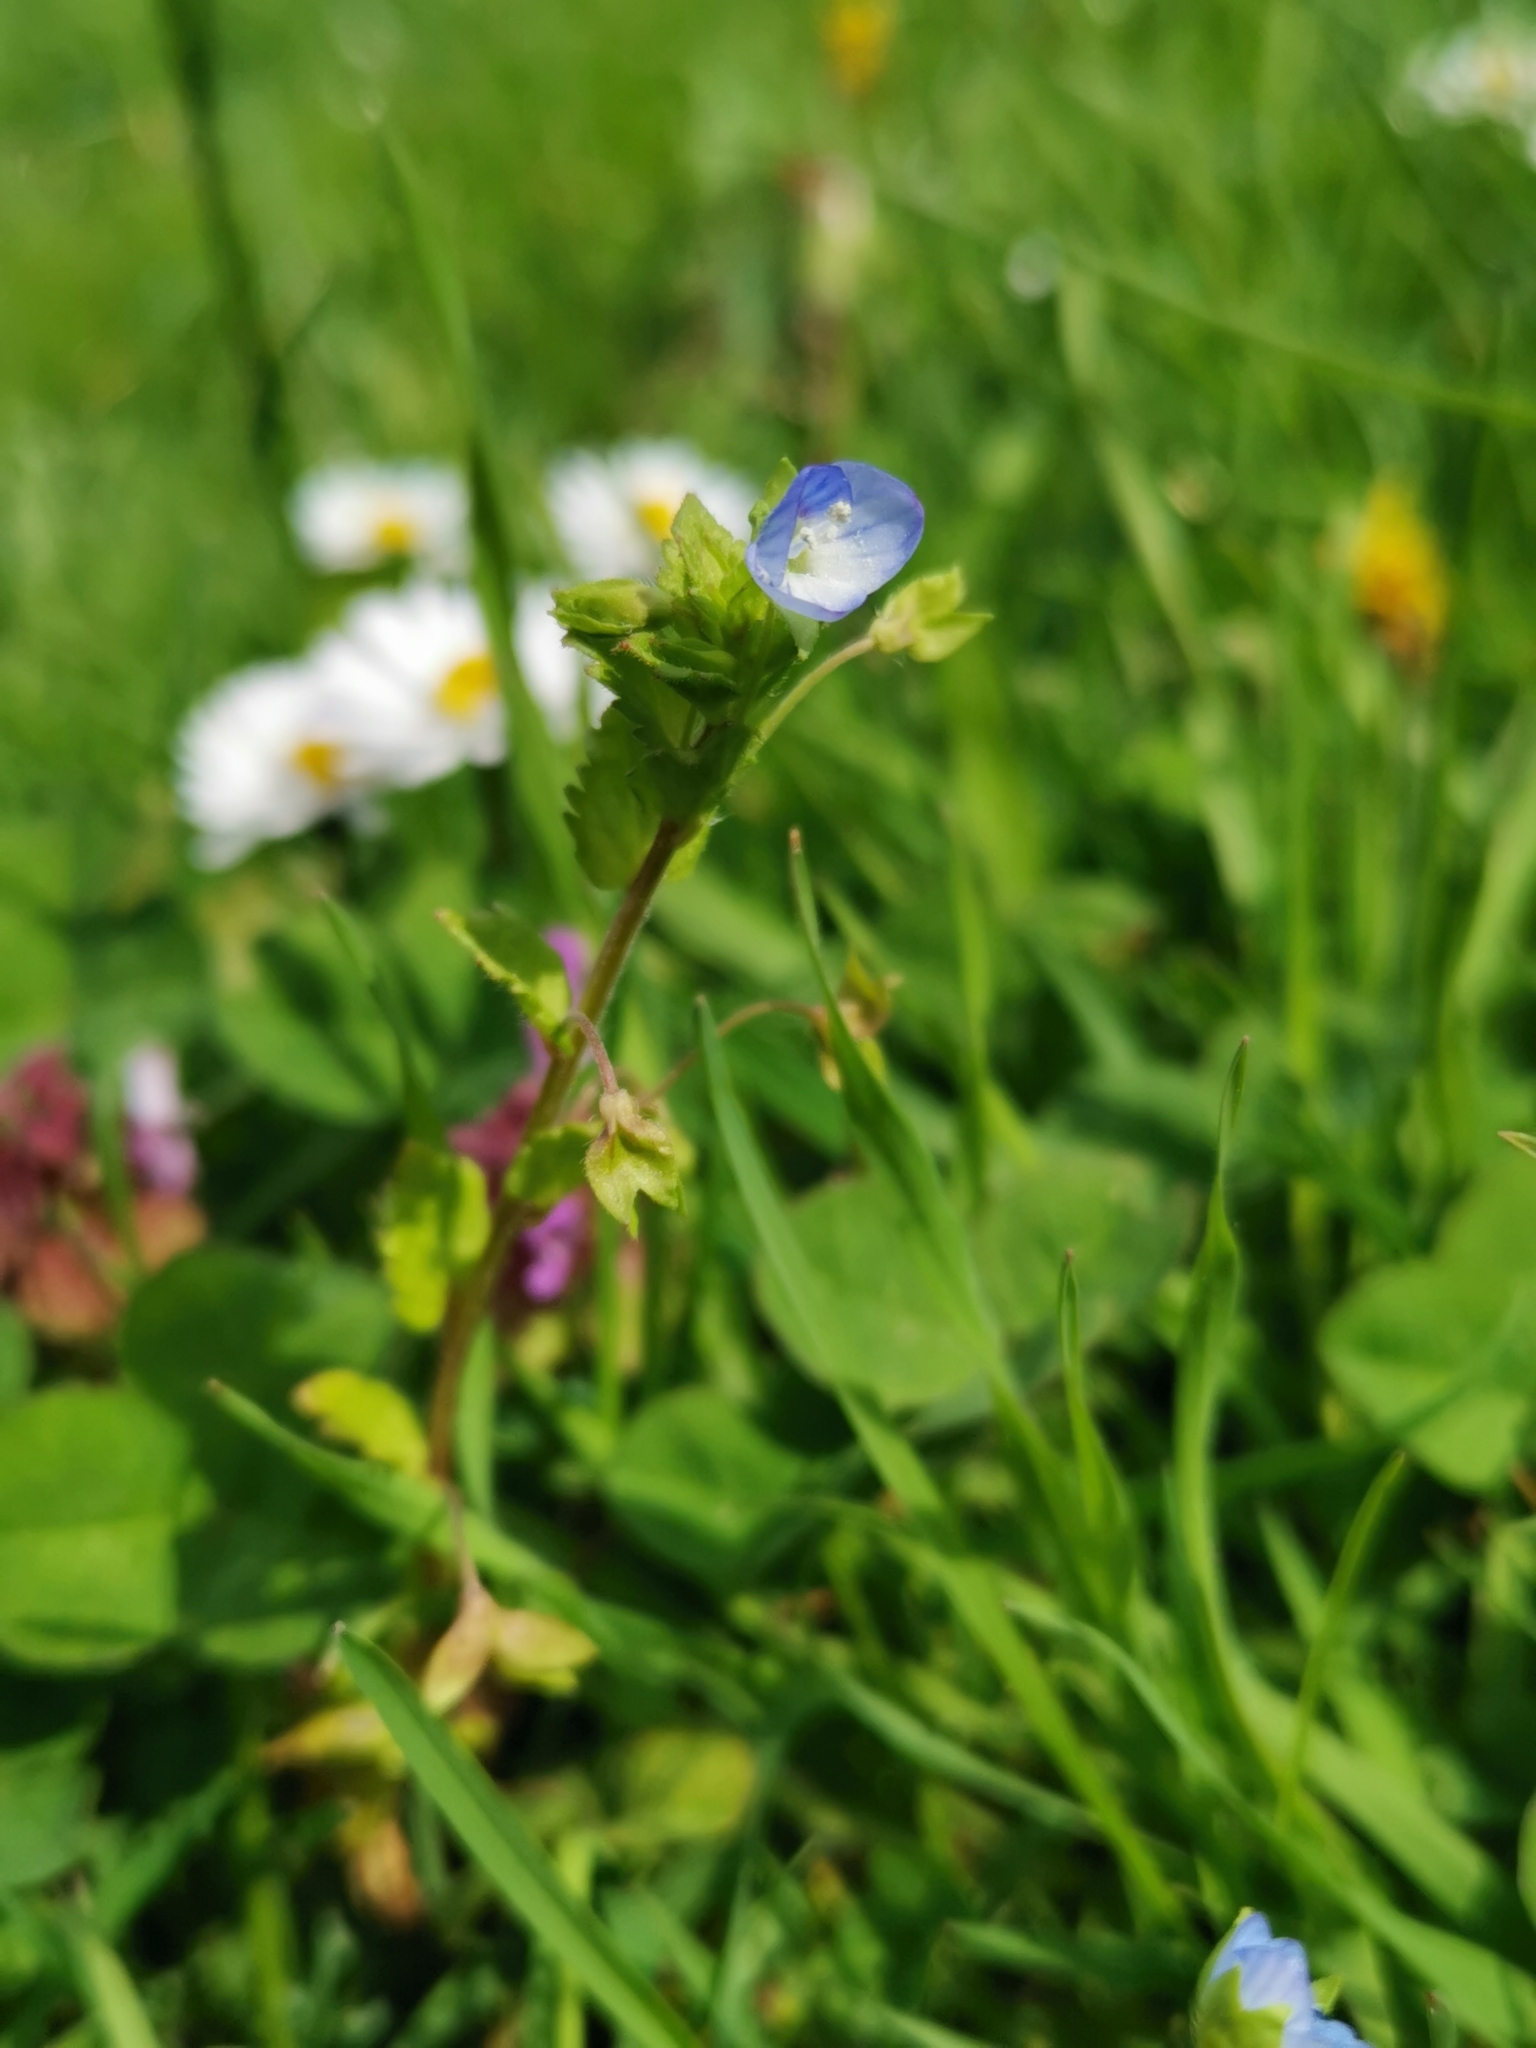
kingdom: Plantae
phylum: Tracheophyta
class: Magnoliopsida
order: Lamiales
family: Plantaginaceae
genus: Veronica
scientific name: Veronica persica
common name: Common field-speedwell
